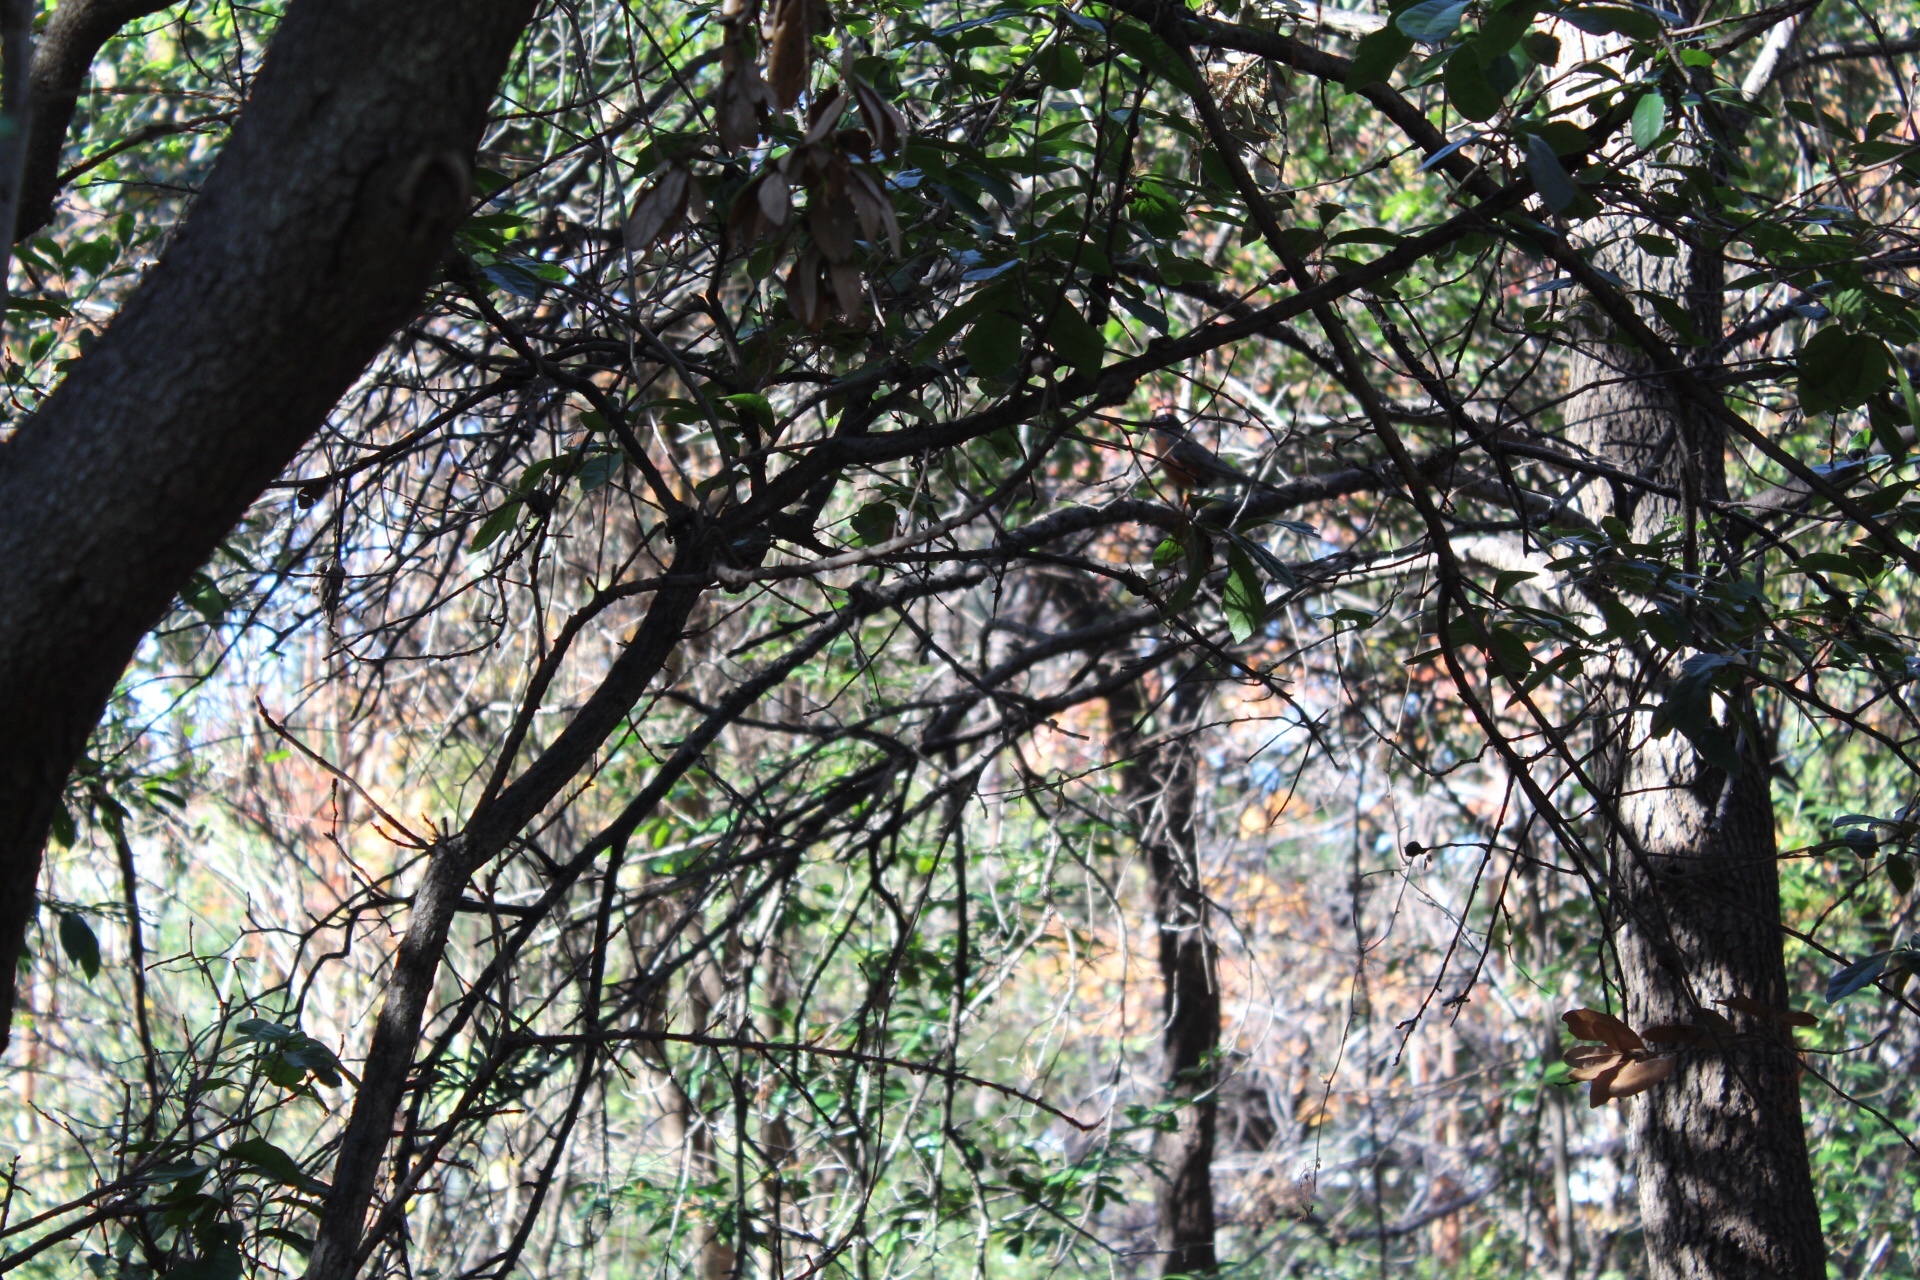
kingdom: Animalia
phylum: Chordata
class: Aves
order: Passeriformes
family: Turdidae
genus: Turdus
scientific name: Turdus migratorius
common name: American robin
